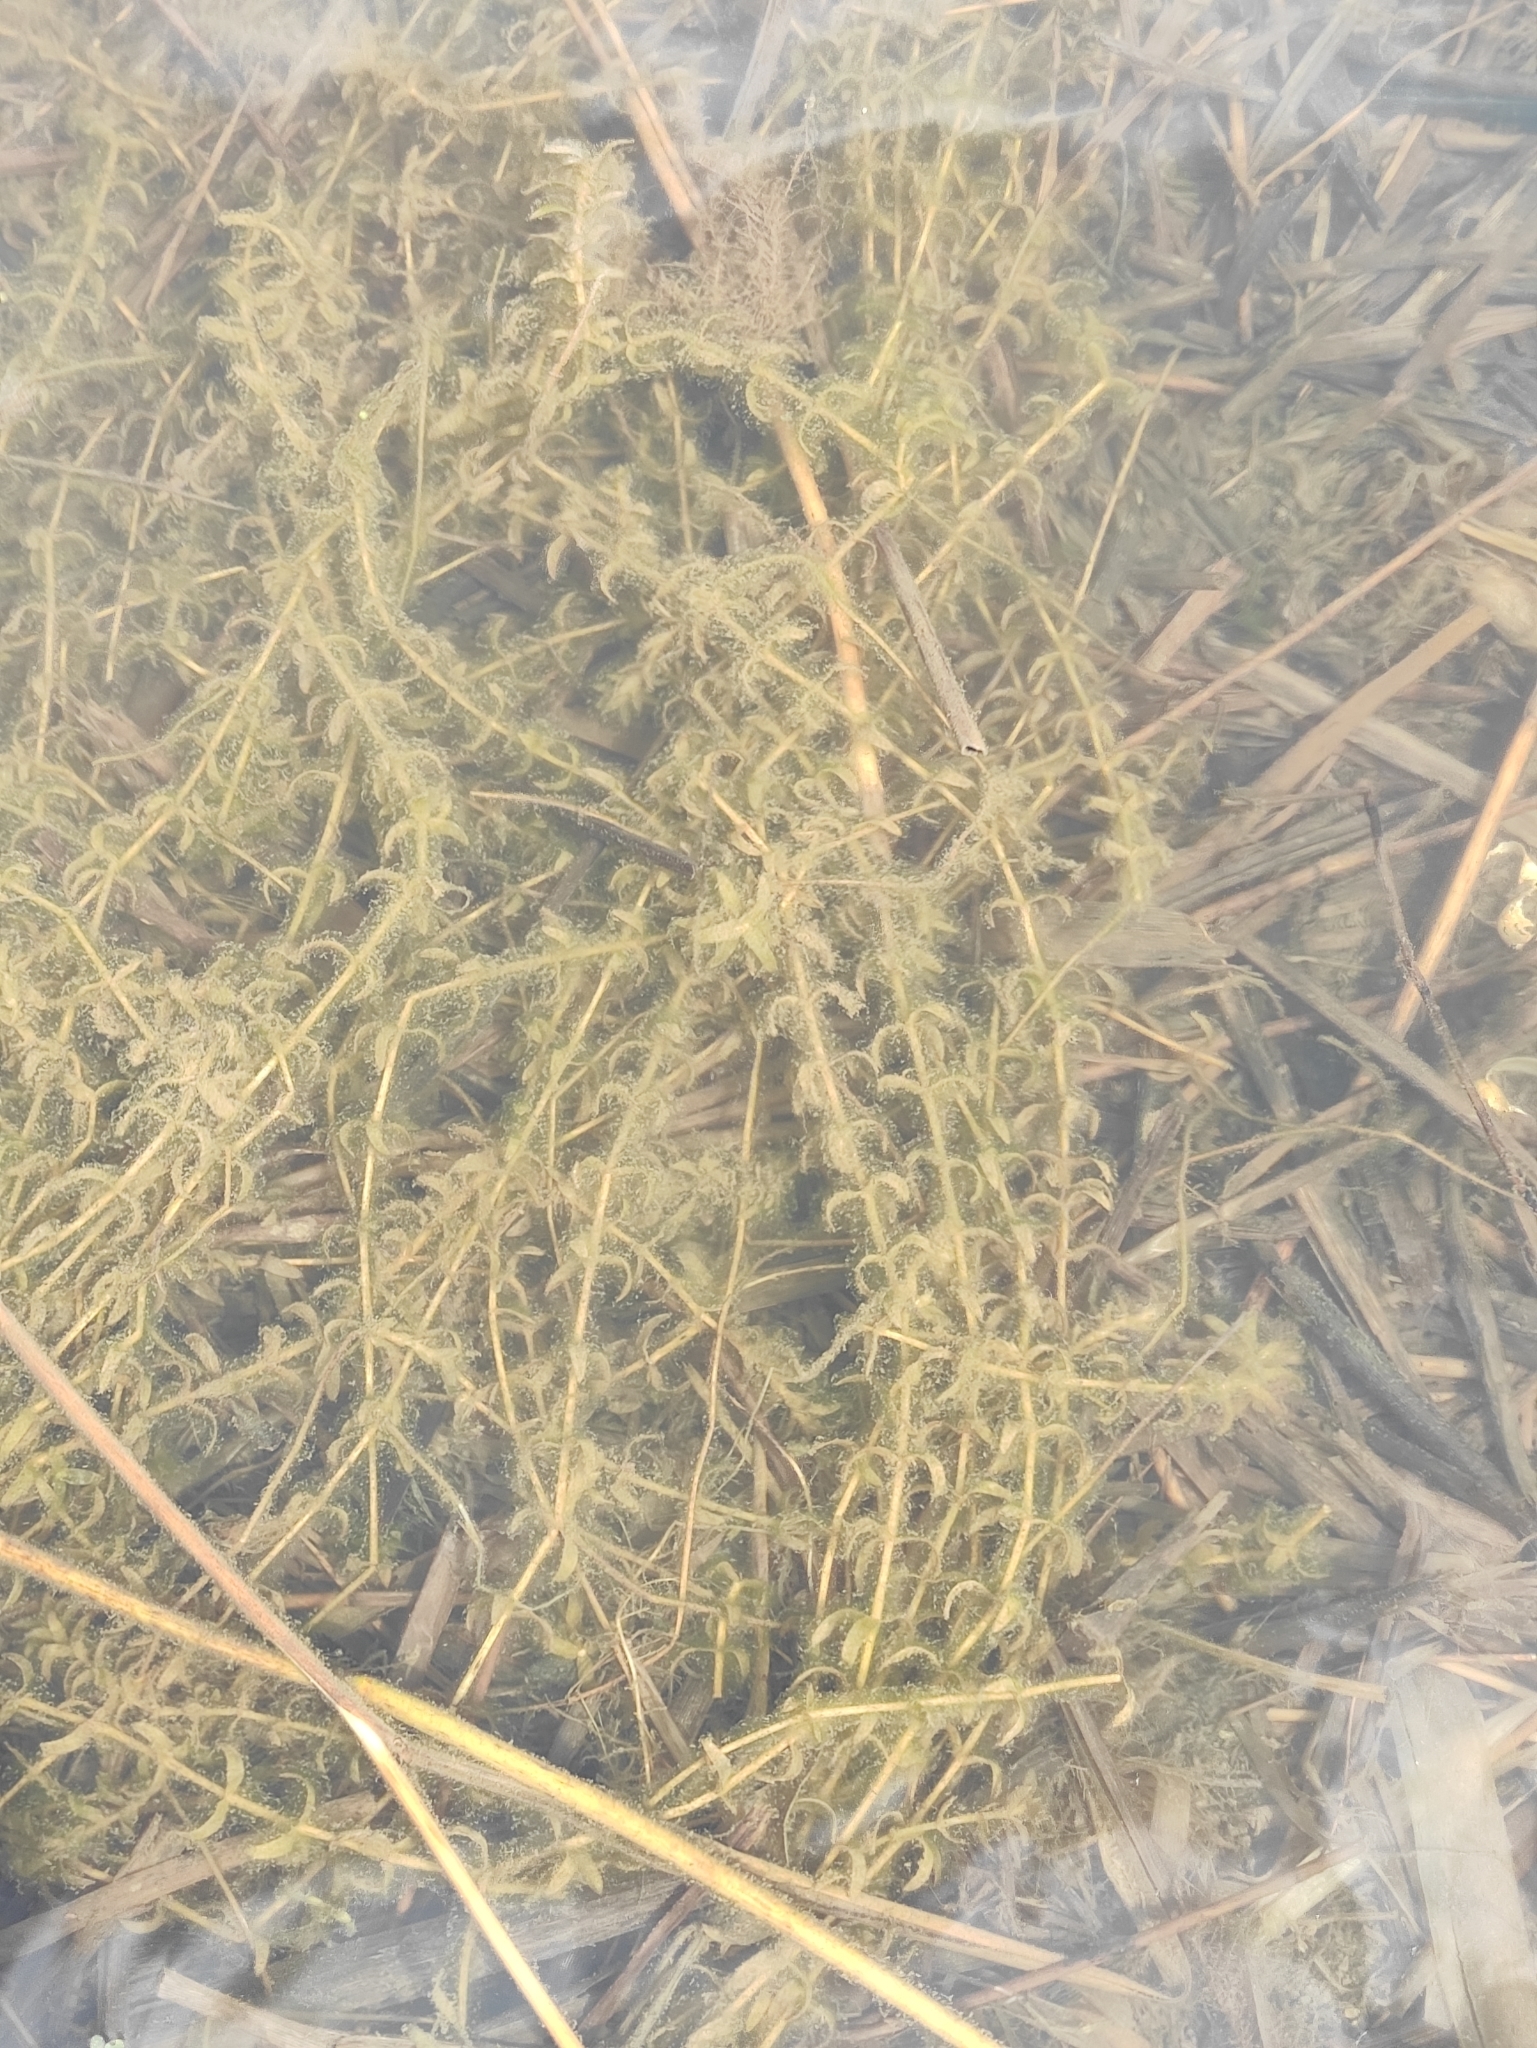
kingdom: Plantae
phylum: Tracheophyta
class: Liliopsida
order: Alismatales
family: Hydrocharitaceae
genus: Elodea
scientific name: Elodea canadensis
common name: Canadian waterweed
